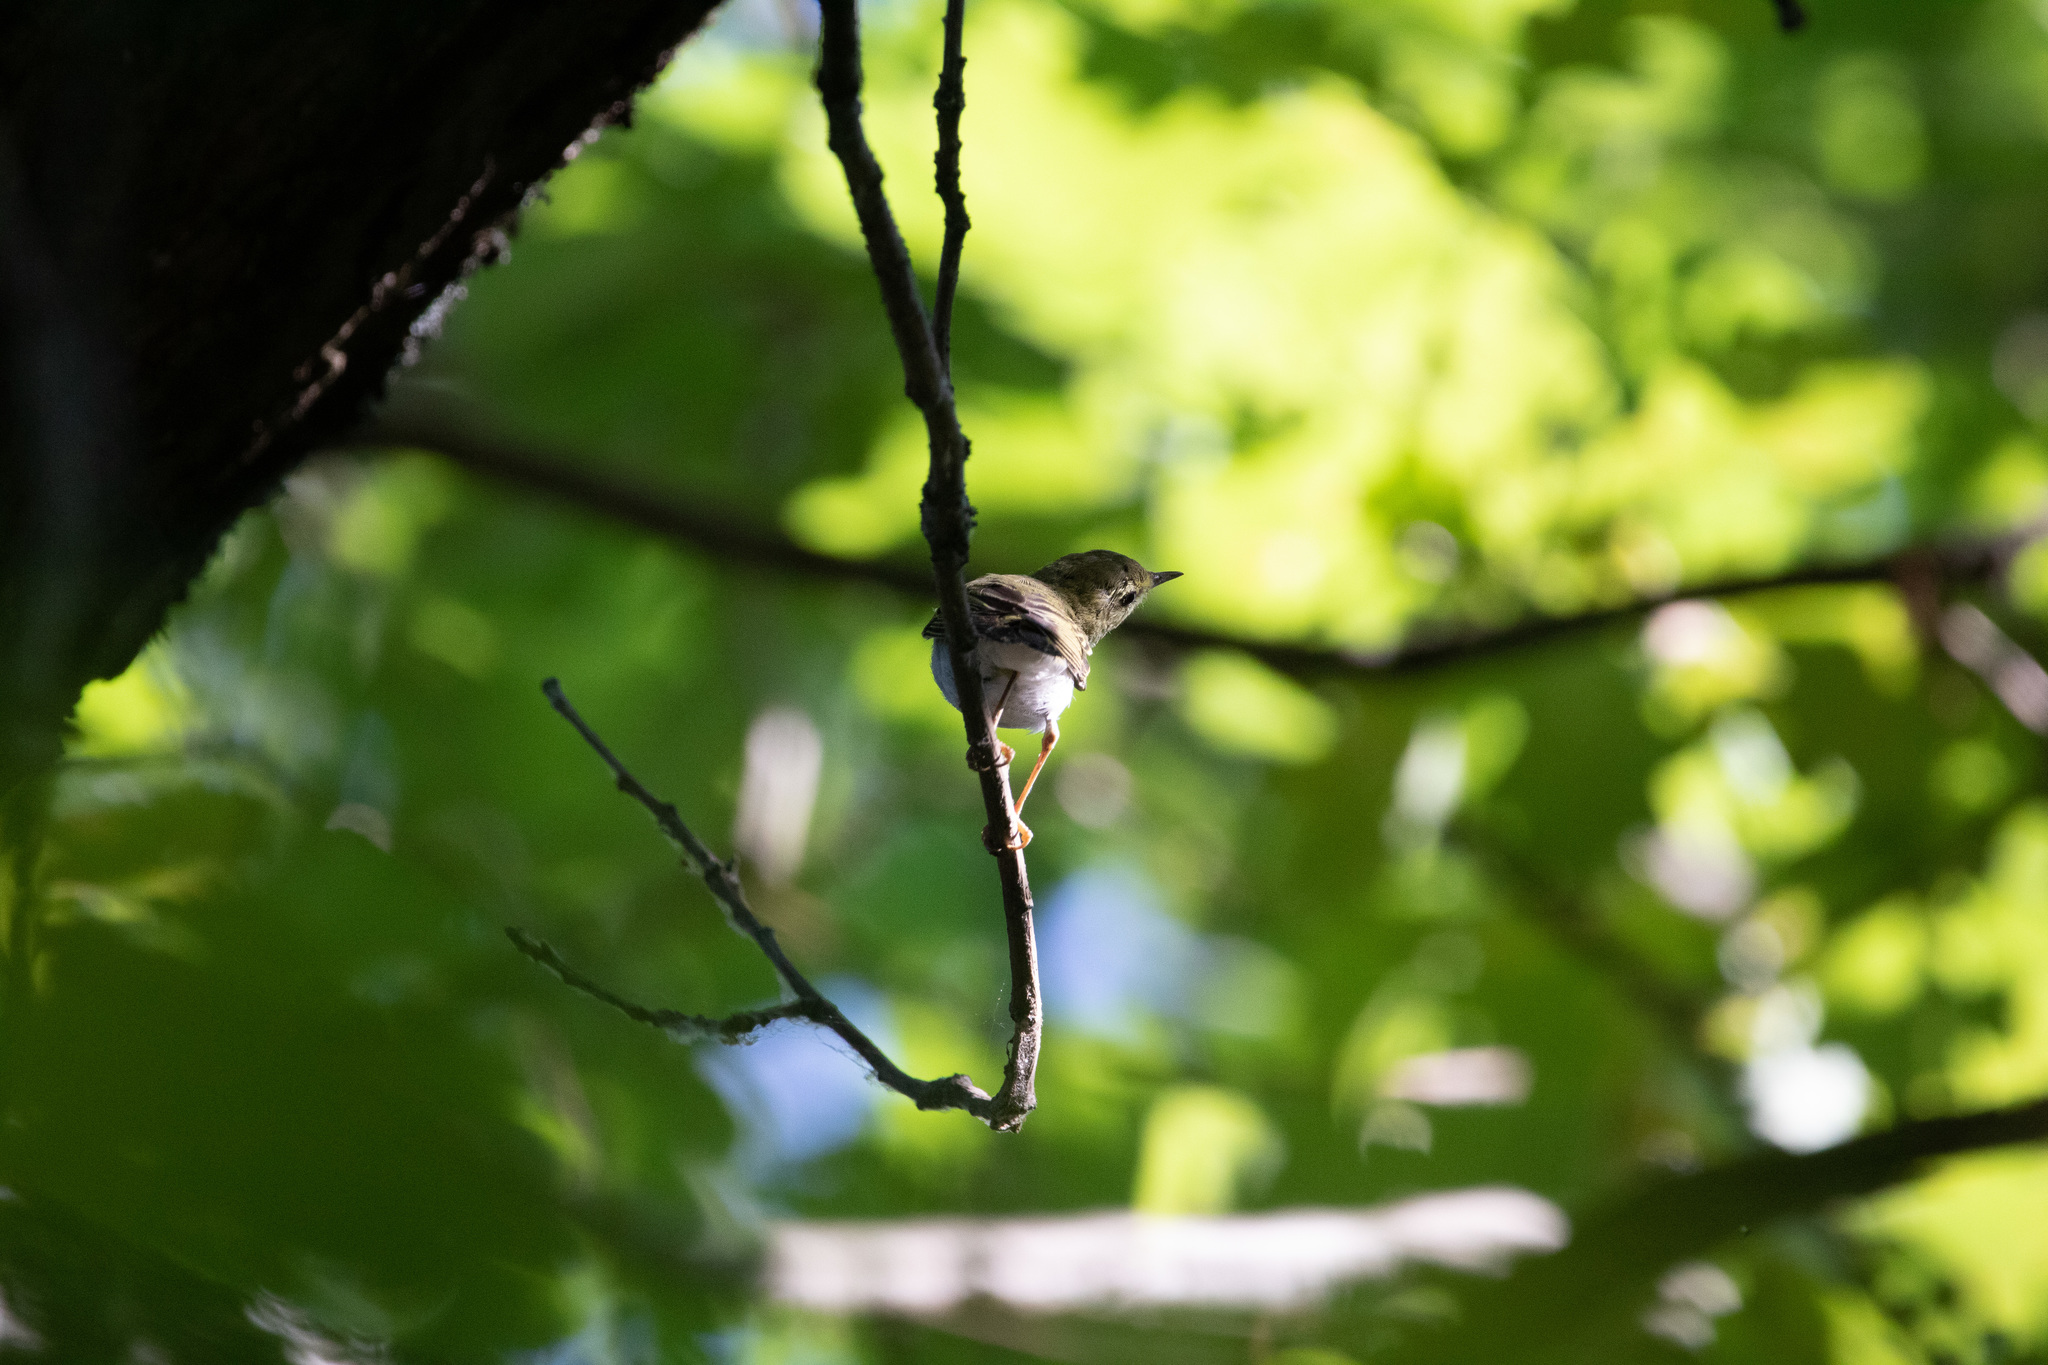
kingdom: Animalia
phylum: Chordata
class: Aves
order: Passeriformes
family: Sylviidae
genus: Sylvia
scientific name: Sylvia communis
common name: Common whitethroat
